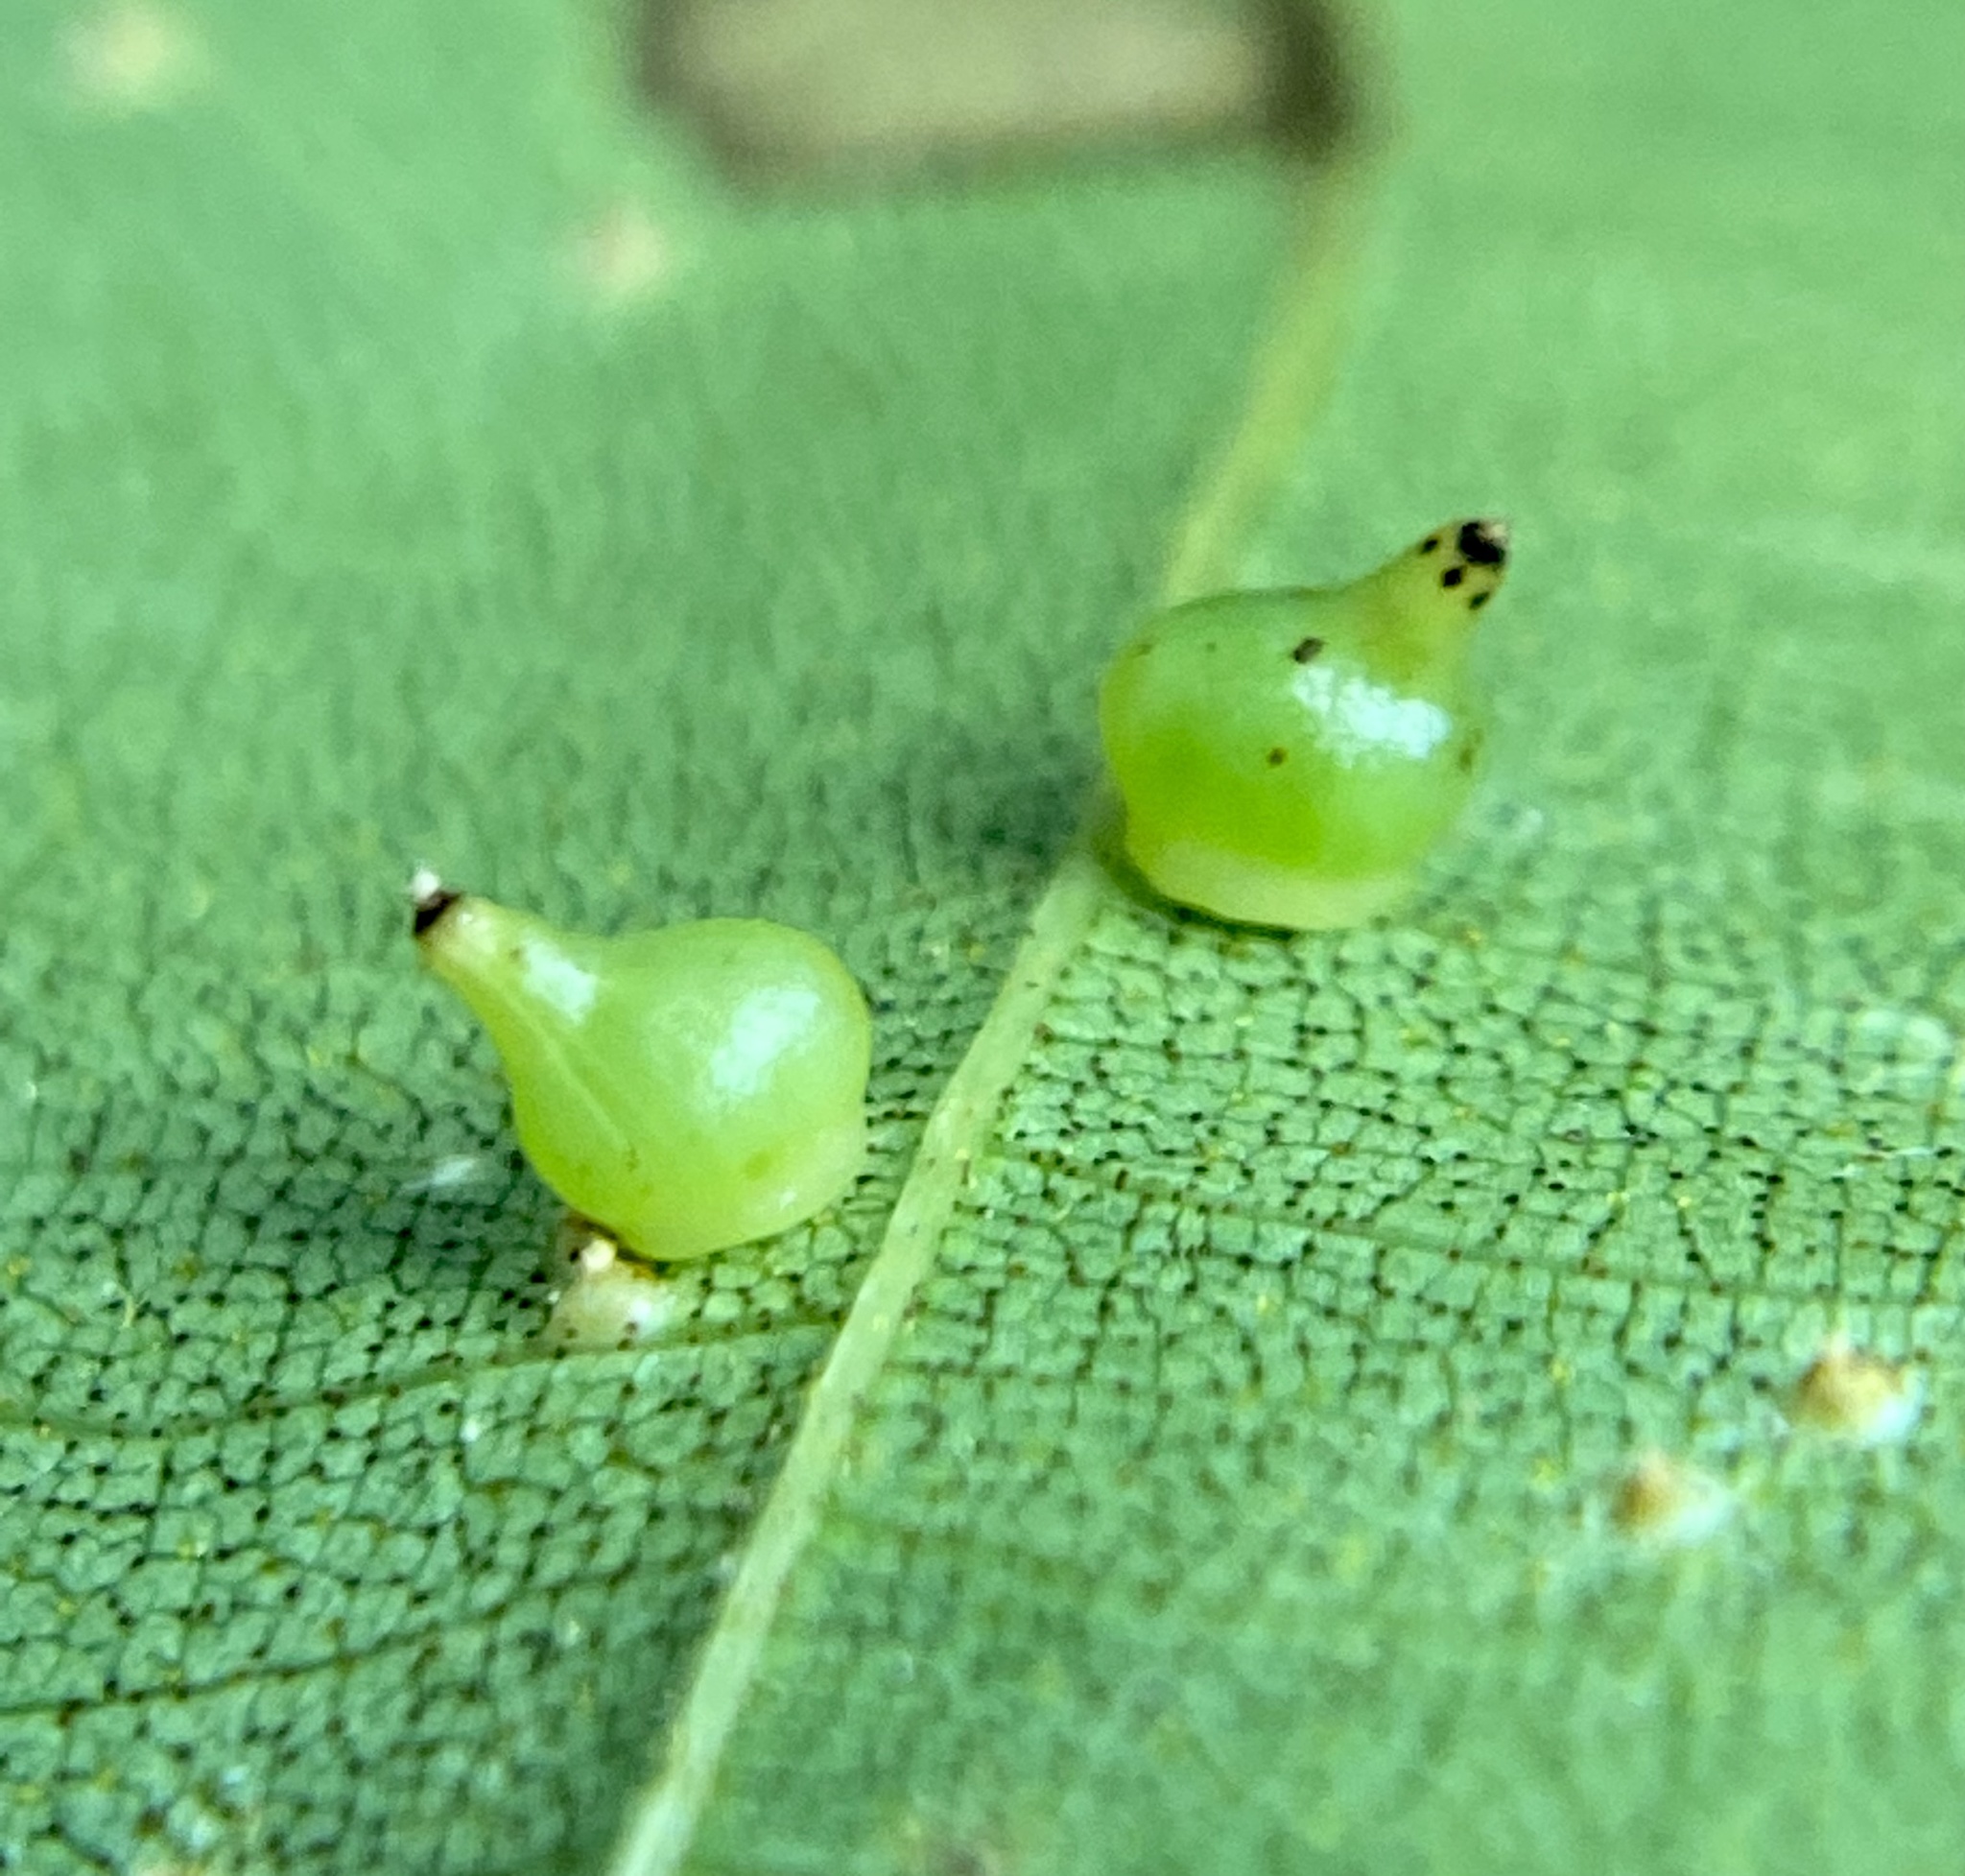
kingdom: Animalia
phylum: Arthropoda
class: Insecta
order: Diptera
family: Cecidomyiidae
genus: Caryomyia
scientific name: Caryomyia shmoo
